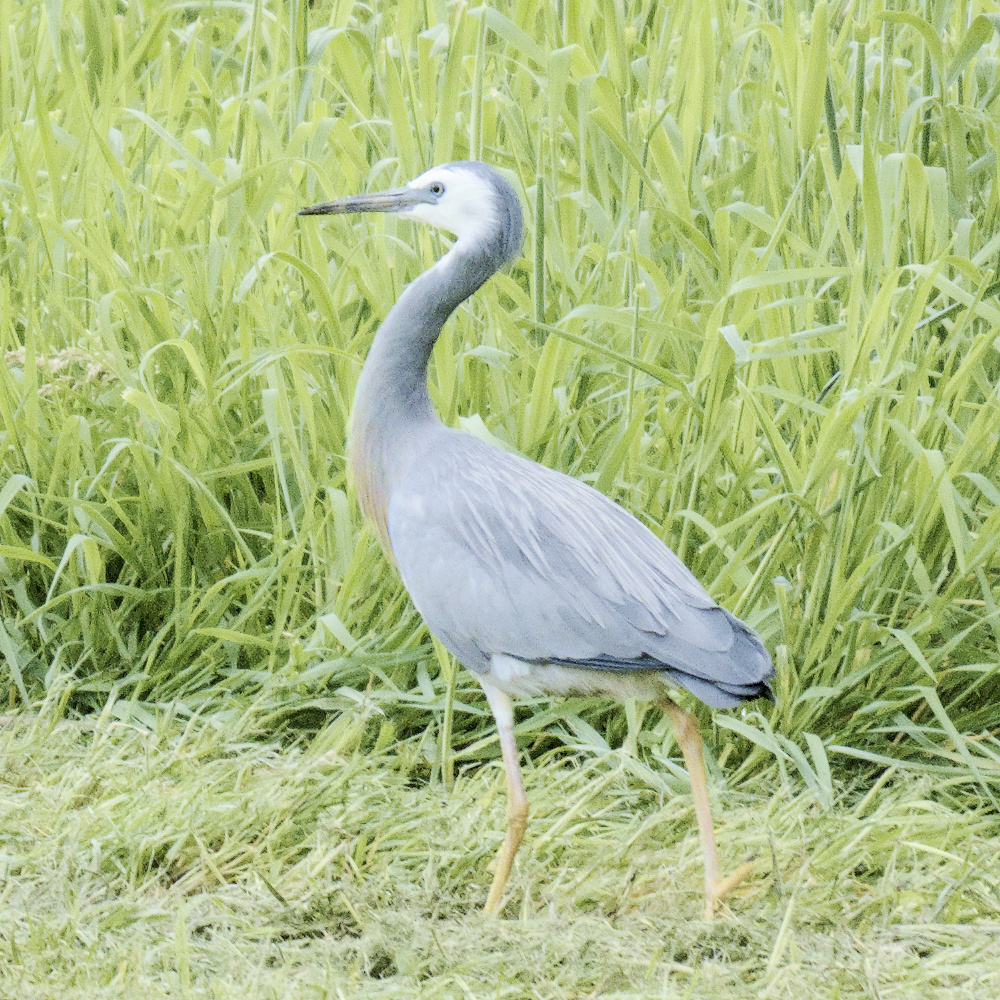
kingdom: Animalia
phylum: Chordata
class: Aves
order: Pelecaniformes
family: Ardeidae
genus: Egretta
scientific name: Egretta novaehollandiae
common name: White-faced heron
